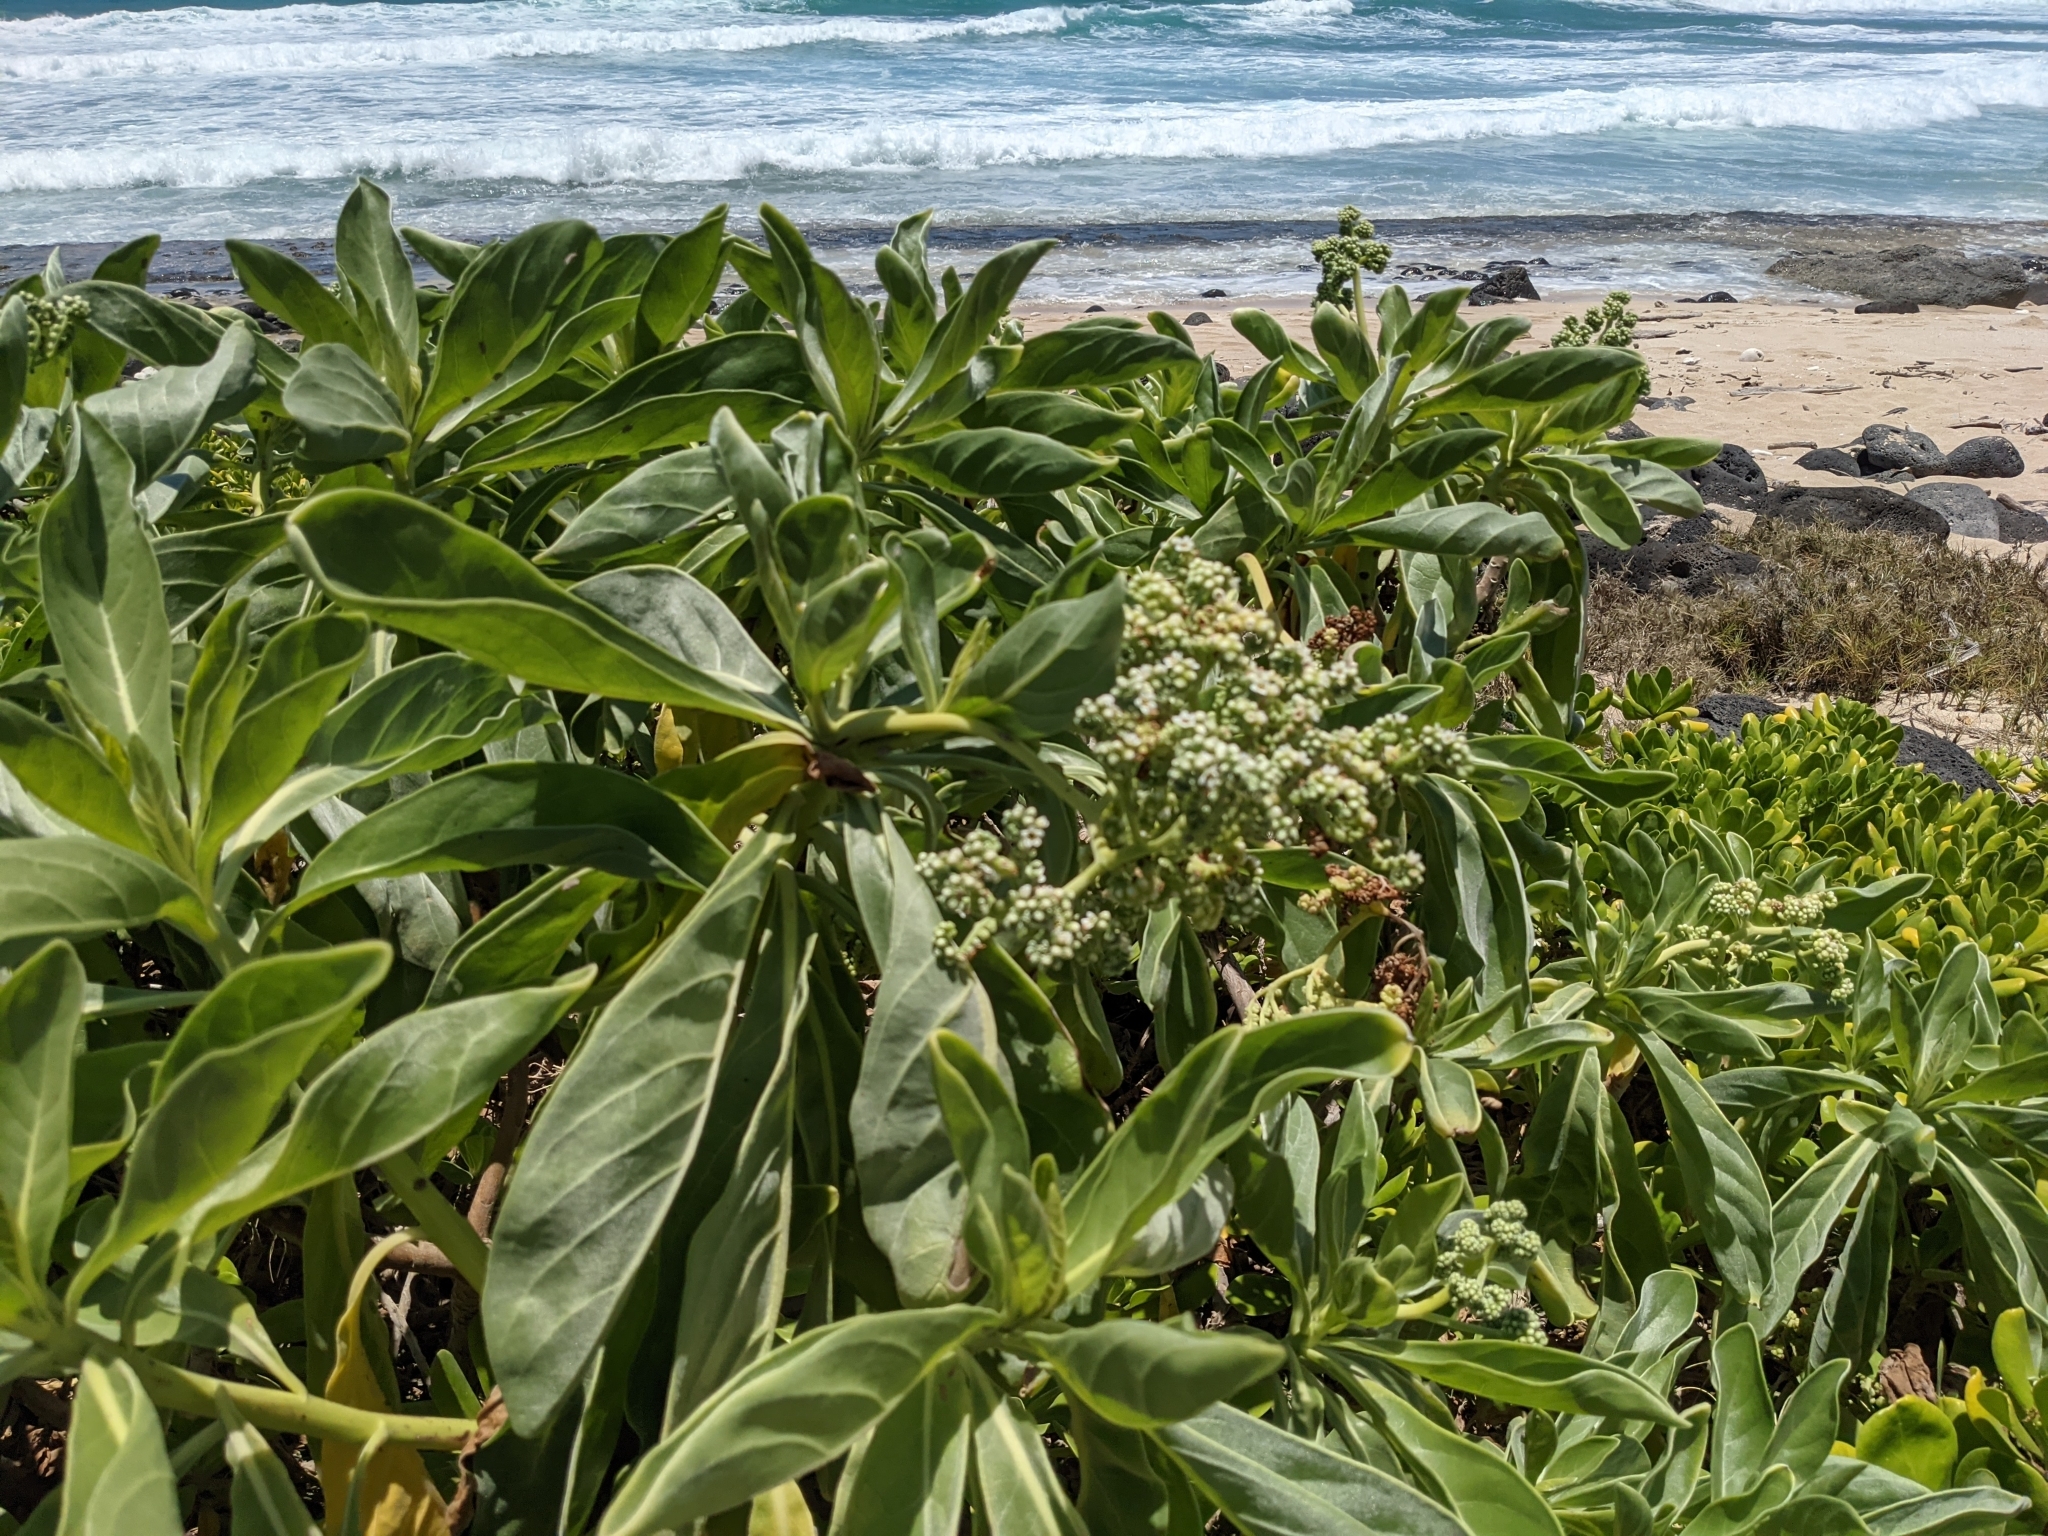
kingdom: Plantae
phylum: Tracheophyta
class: Magnoliopsida
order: Boraginales
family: Heliotropiaceae
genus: Heliotropium
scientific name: Heliotropium velutinum
